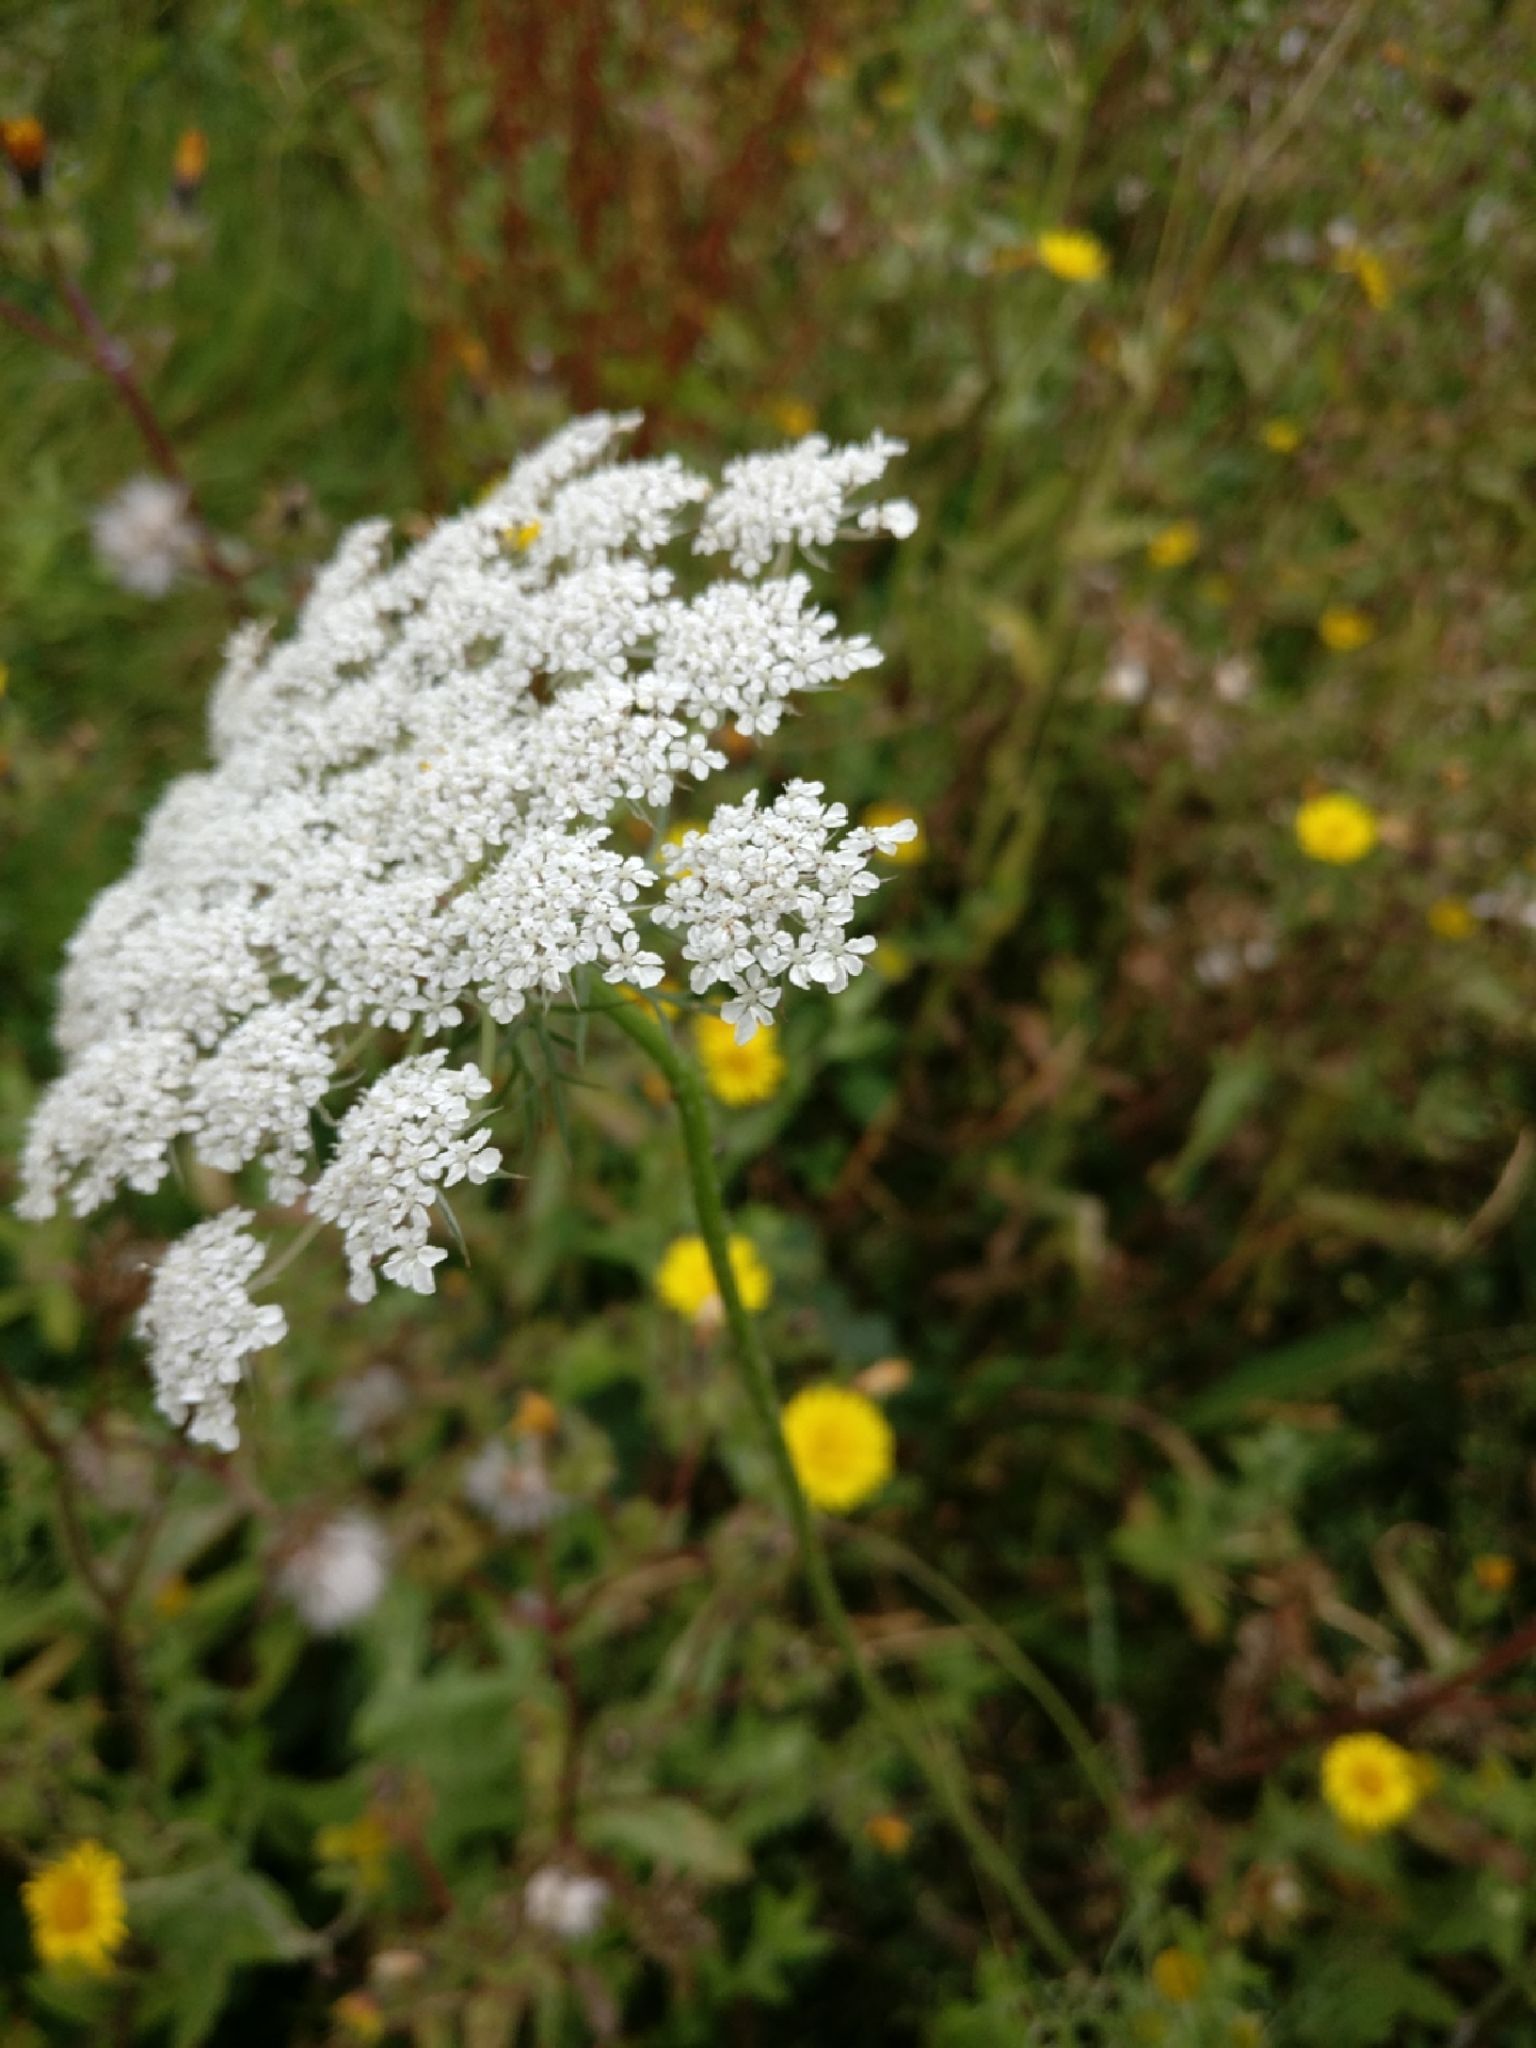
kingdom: Plantae
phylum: Tracheophyta
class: Magnoliopsida
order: Apiales
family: Apiaceae
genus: Daucus
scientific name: Daucus carota
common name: Wild carrot
